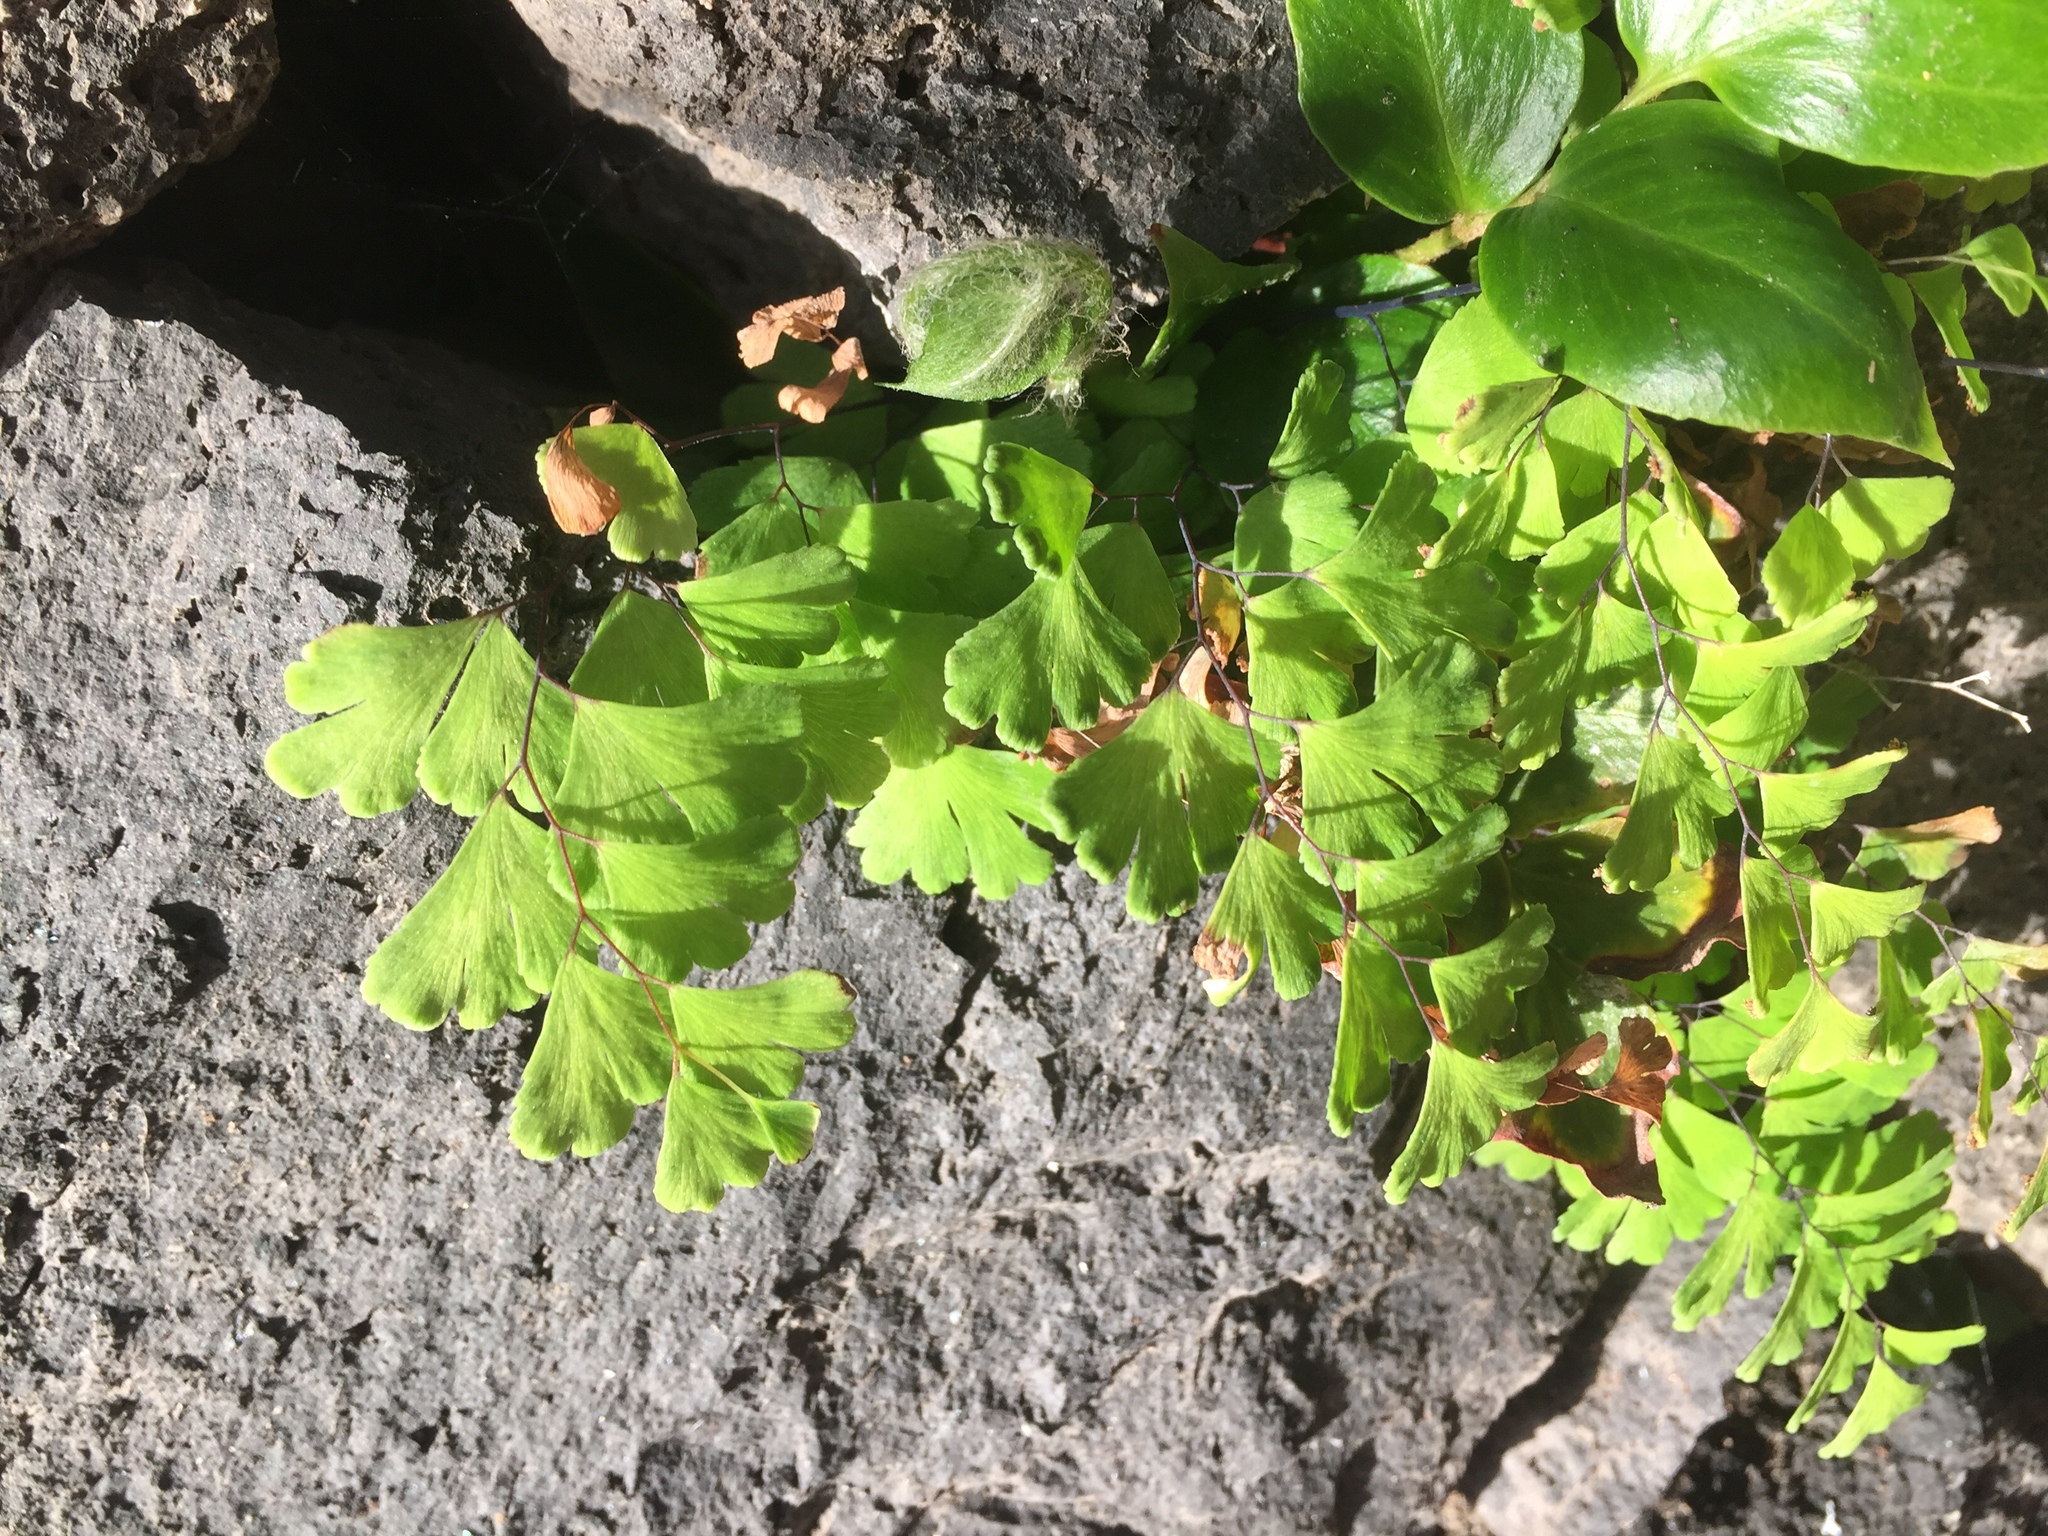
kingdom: Plantae
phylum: Tracheophyta
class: Polypodiopsida
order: Polypodiales
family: Pteridaceae
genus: Adiantum
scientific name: Adiantum capillus-veneris
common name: Maidenhair fern
